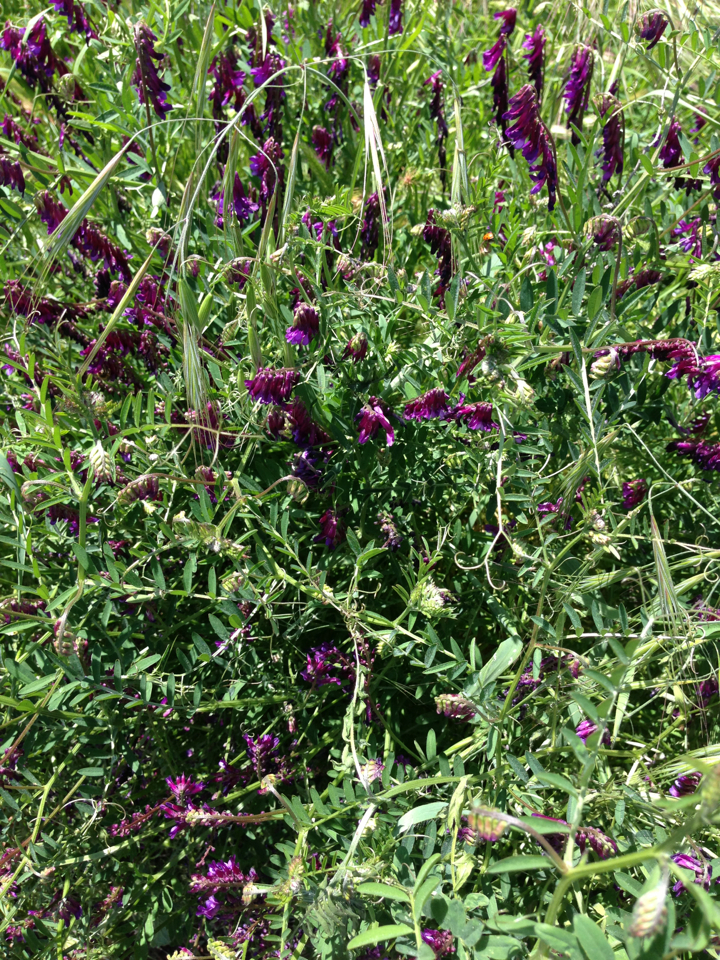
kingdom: Plantae
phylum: Tracheophyta
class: Magnoliopsida
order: Fabales
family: Fabaceae
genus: Vicia
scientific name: Vicia villosa
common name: Fodder vetch
